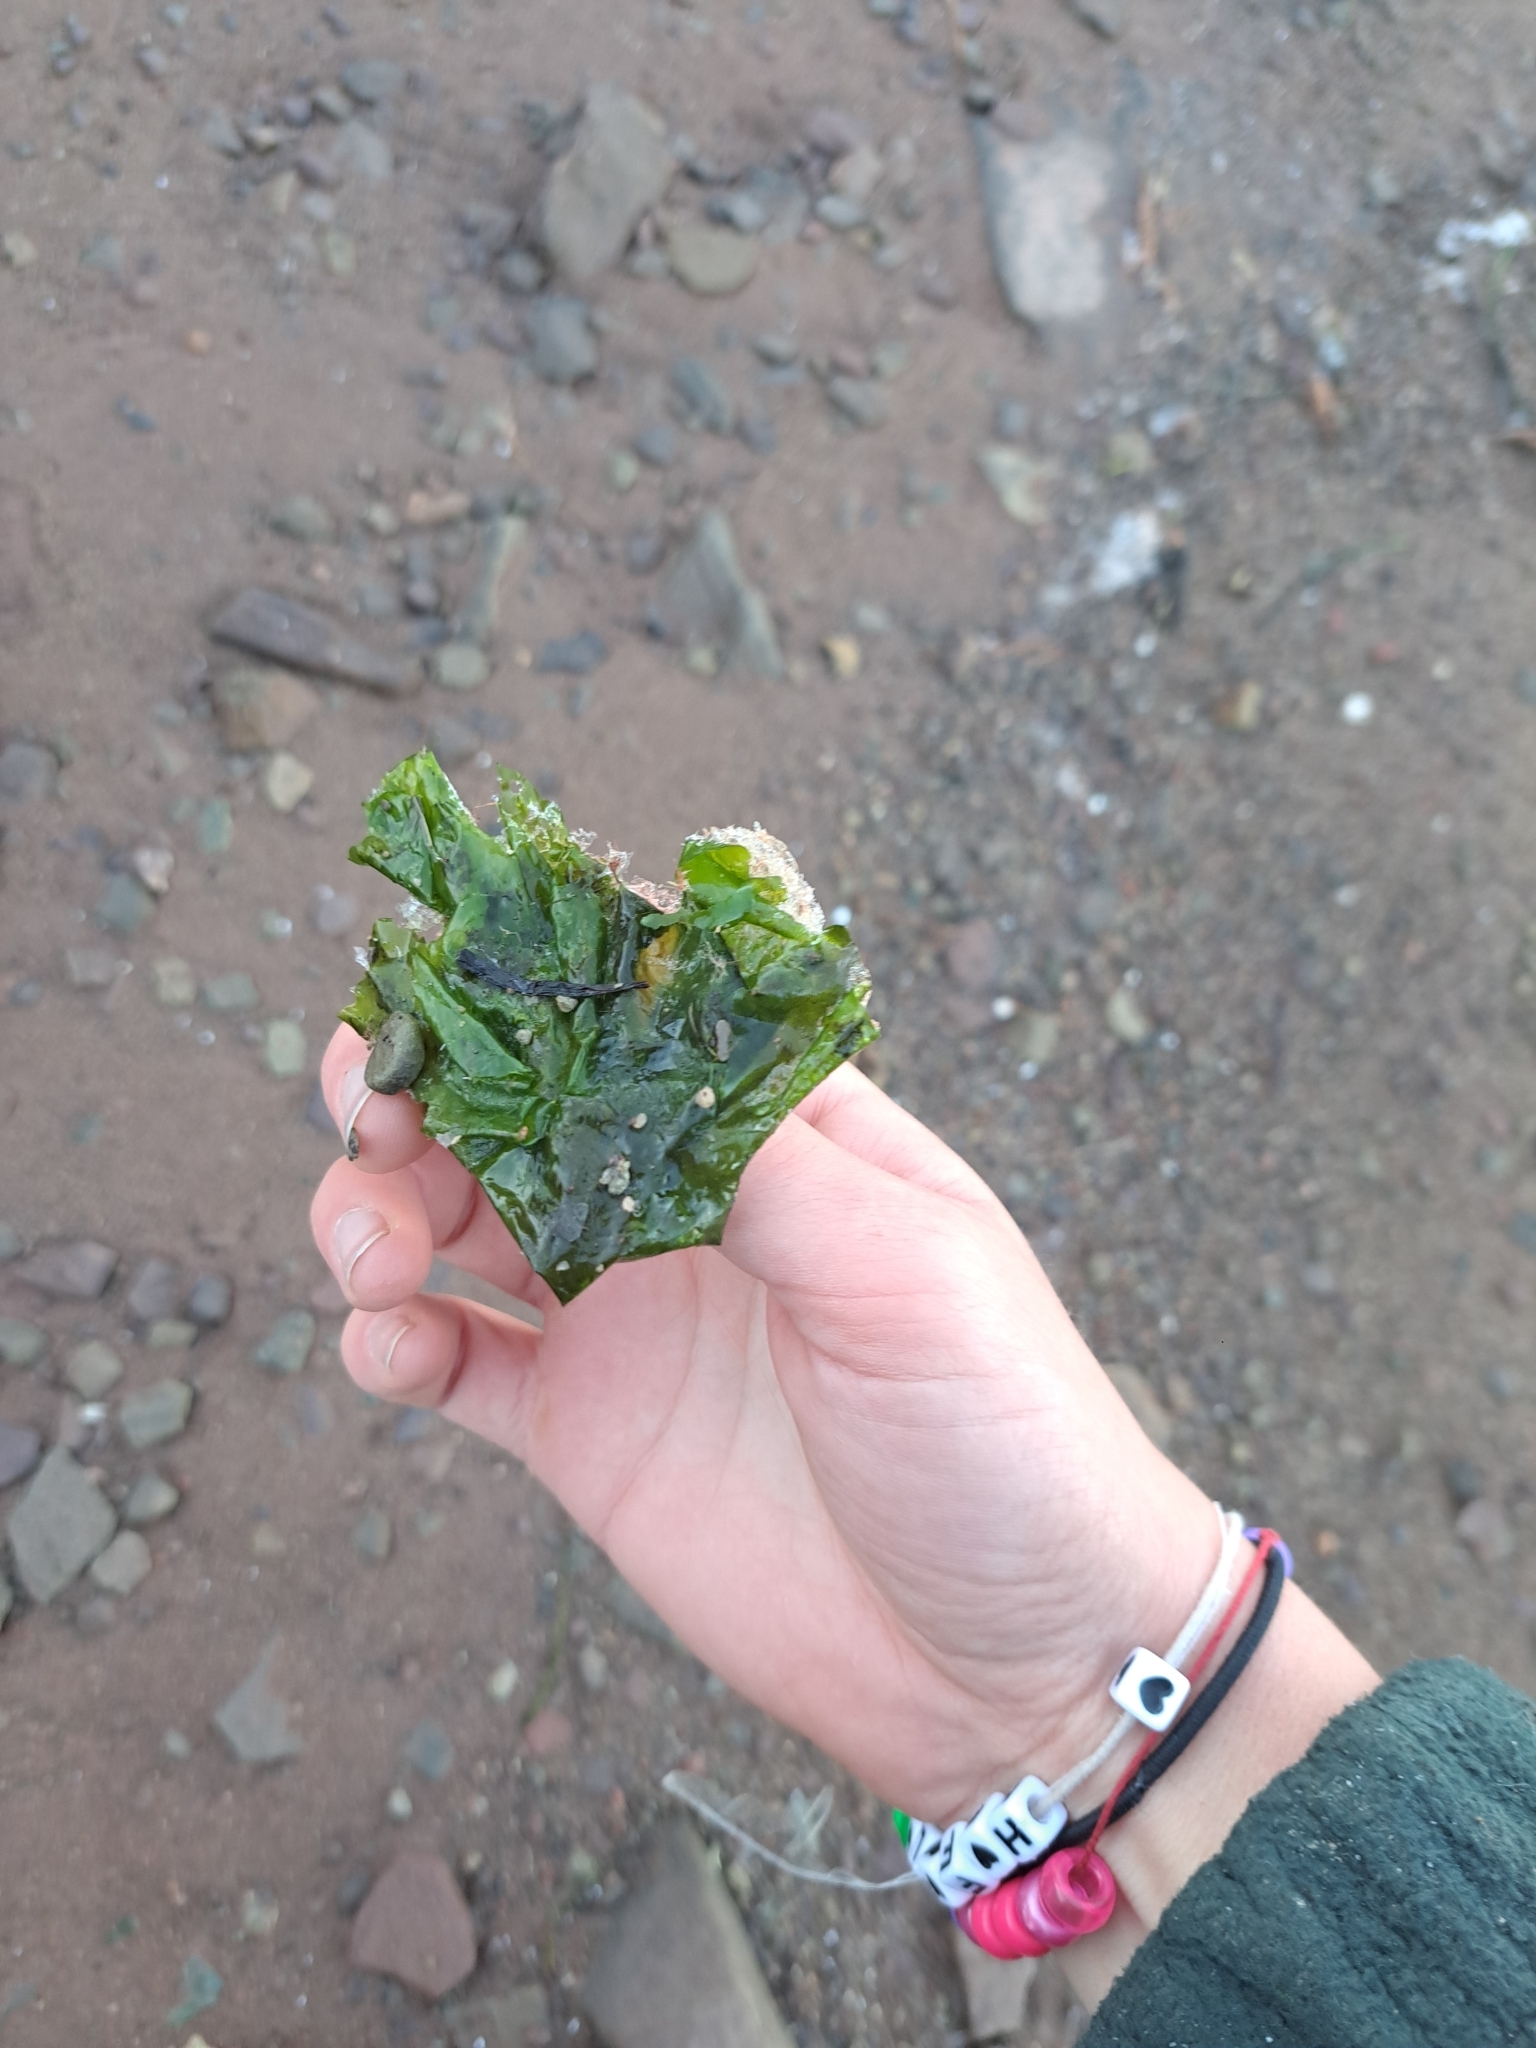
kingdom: Plantae
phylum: Chlorophyta
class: Ulvophyceae
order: Ulvales
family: Ulvaceae
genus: Ulva
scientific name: Ulva lactuca
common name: Sea lettuce
